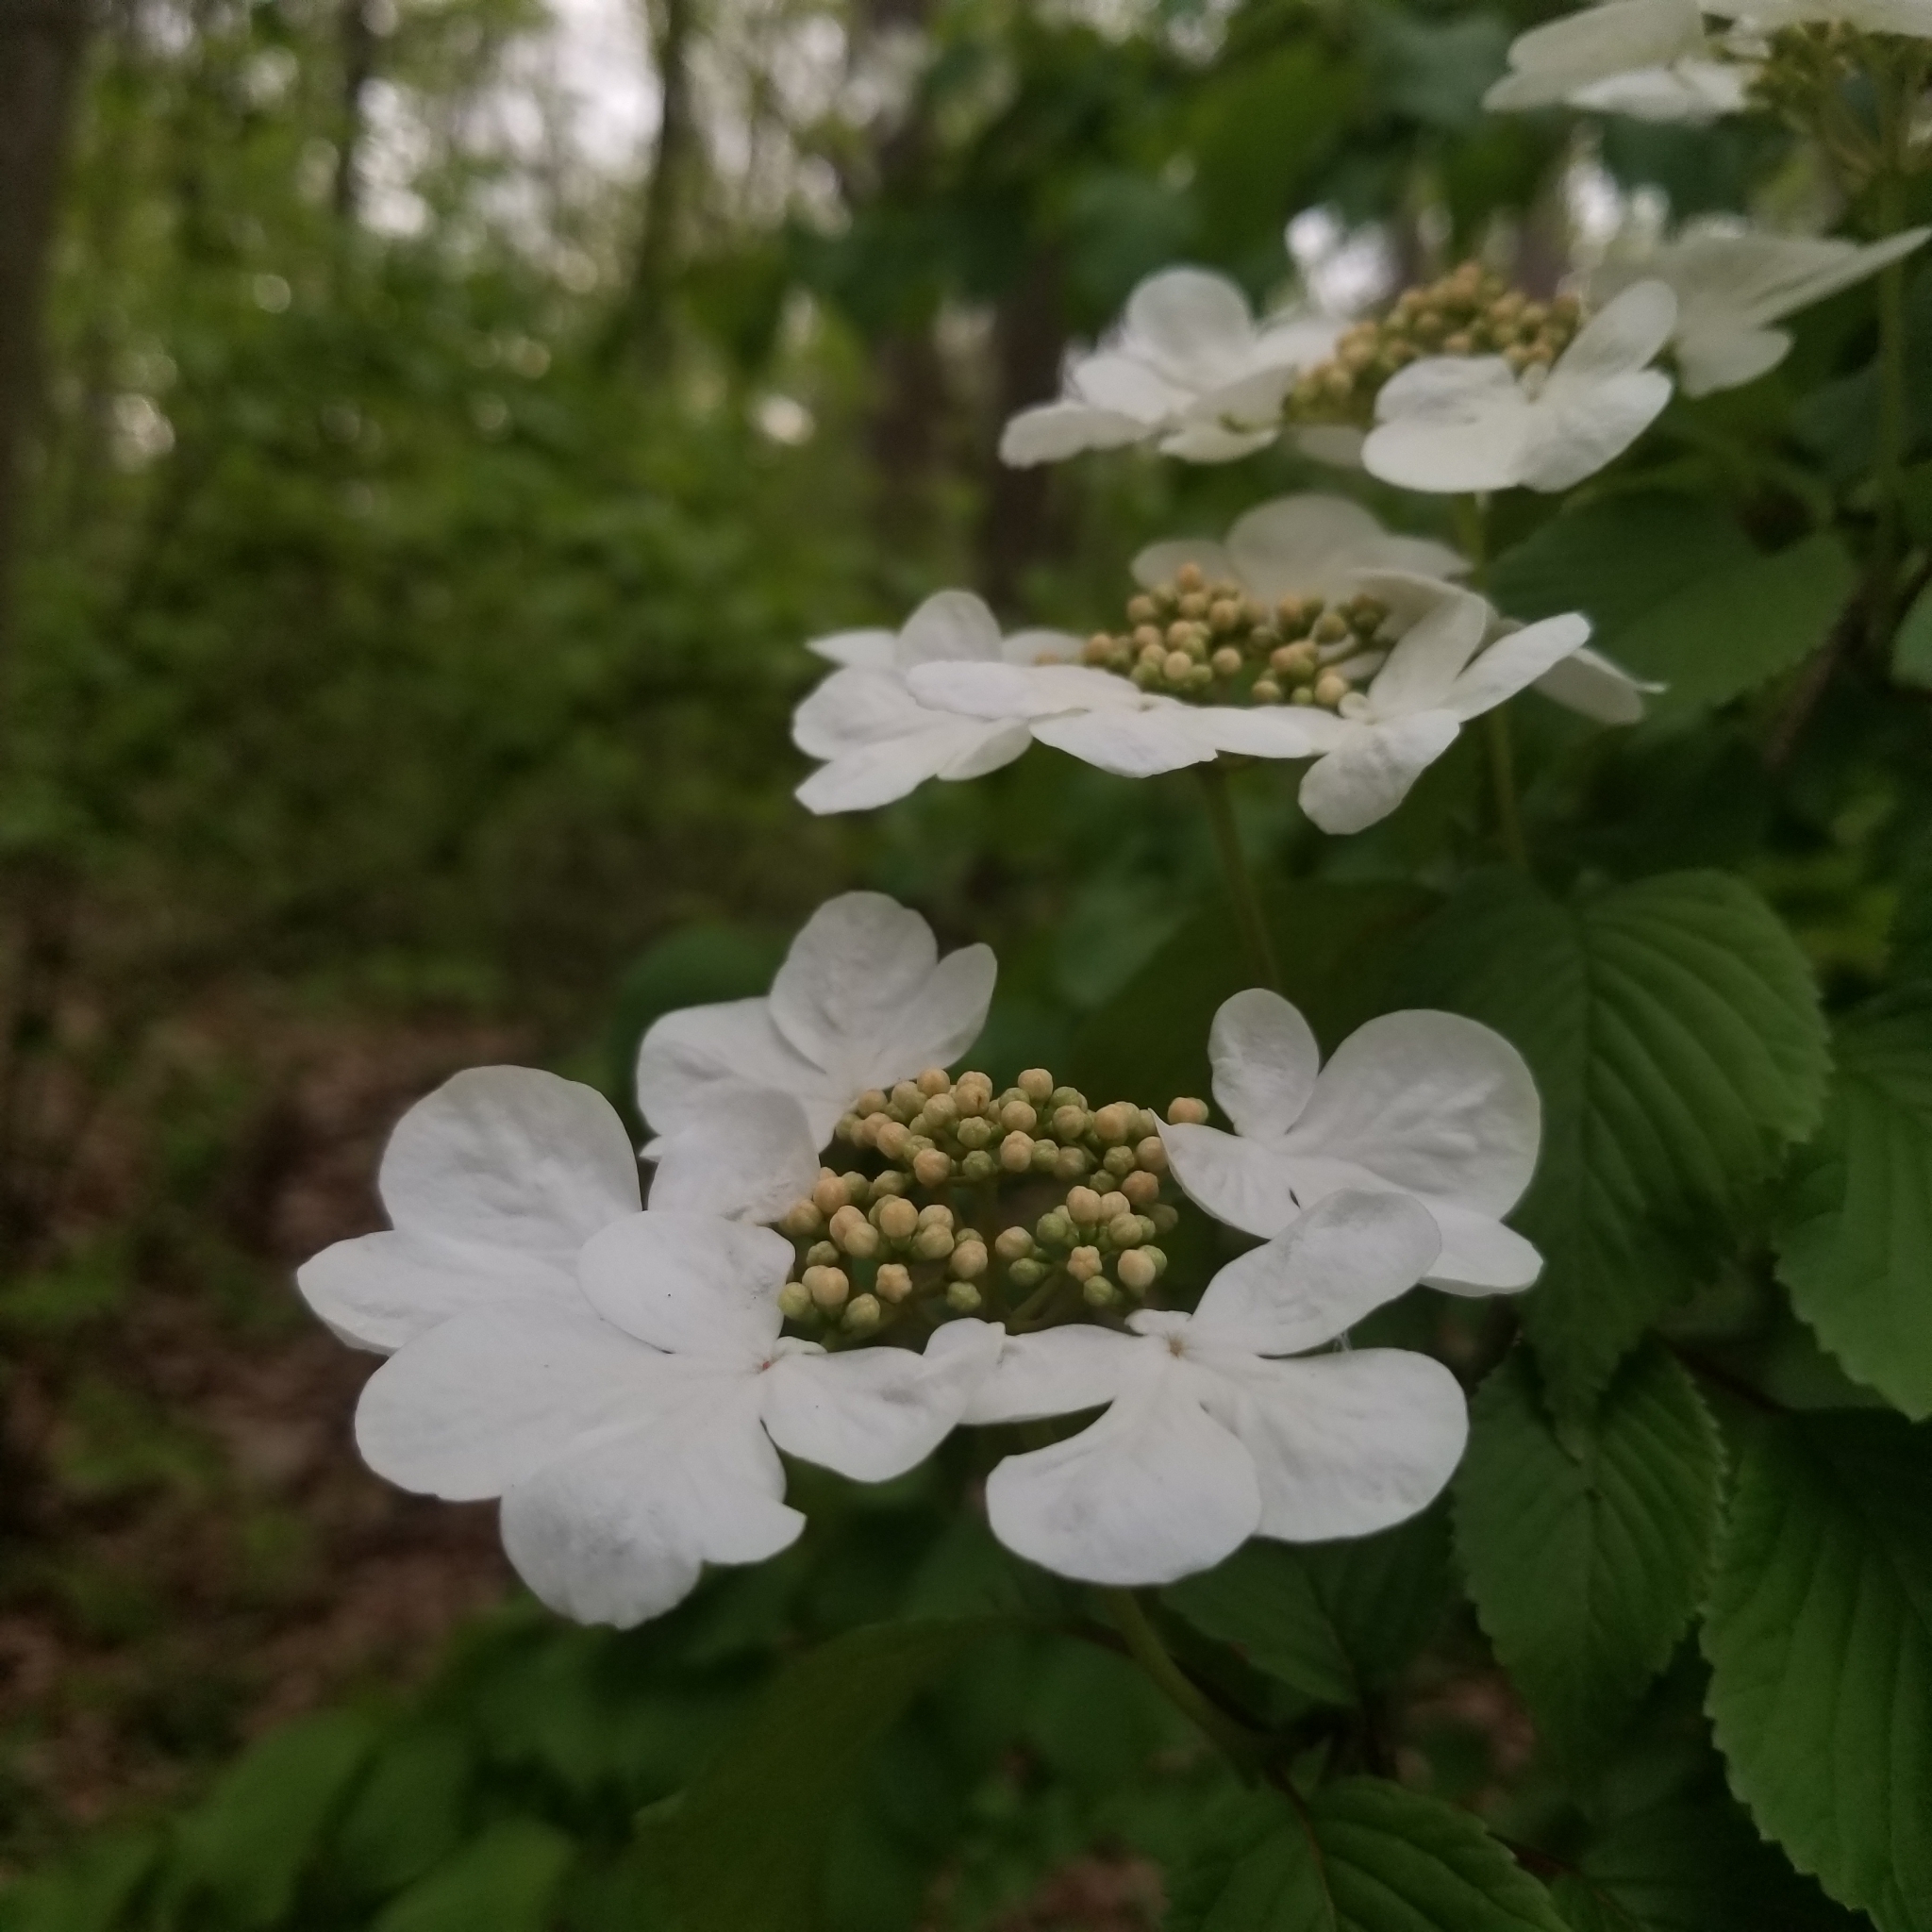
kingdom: Plantae
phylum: Tracheophyta
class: Magnoliopsida
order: Dipsacales
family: Viburnaceae
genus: Viburnum
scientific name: Viburnum plicatum
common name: Japanese snowball
